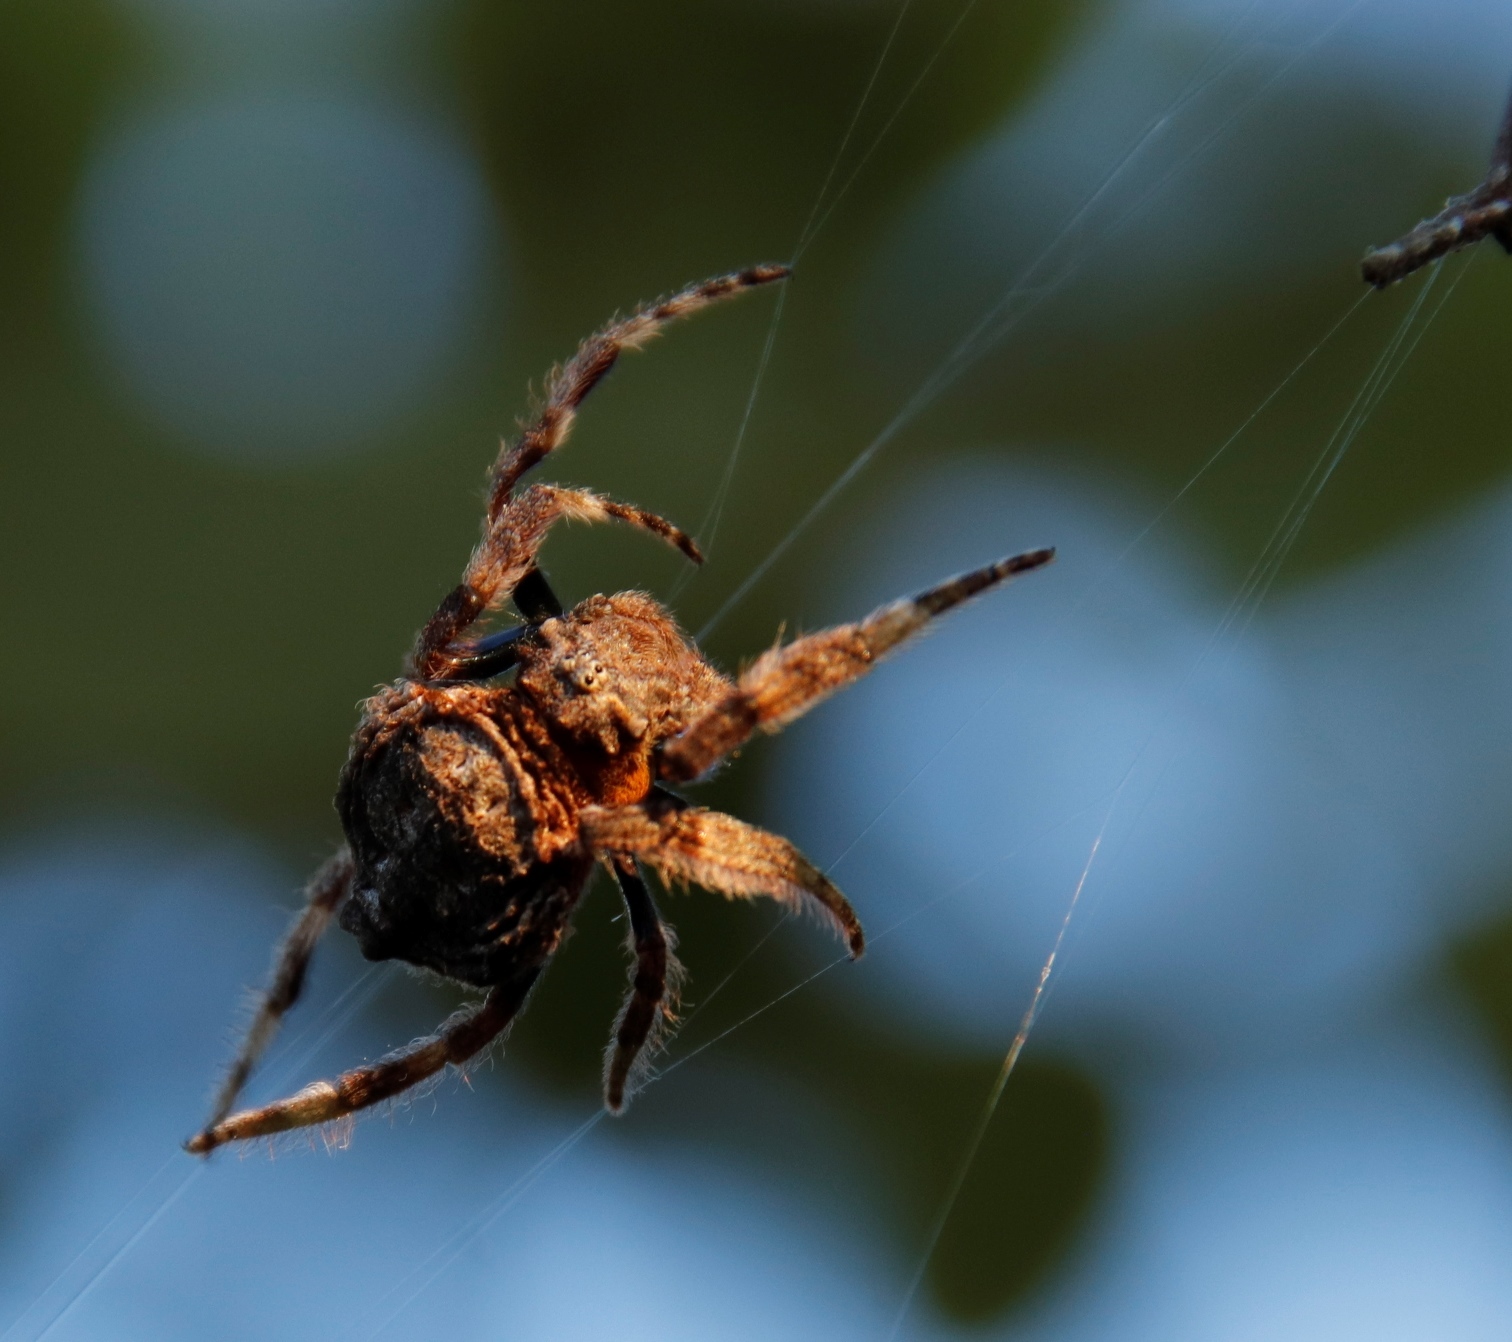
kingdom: Animalia
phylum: Arthropoda
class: Arachnida
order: Araneae
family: Araneidae
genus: Caerostris
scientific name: Caerostris sexcuspidata
